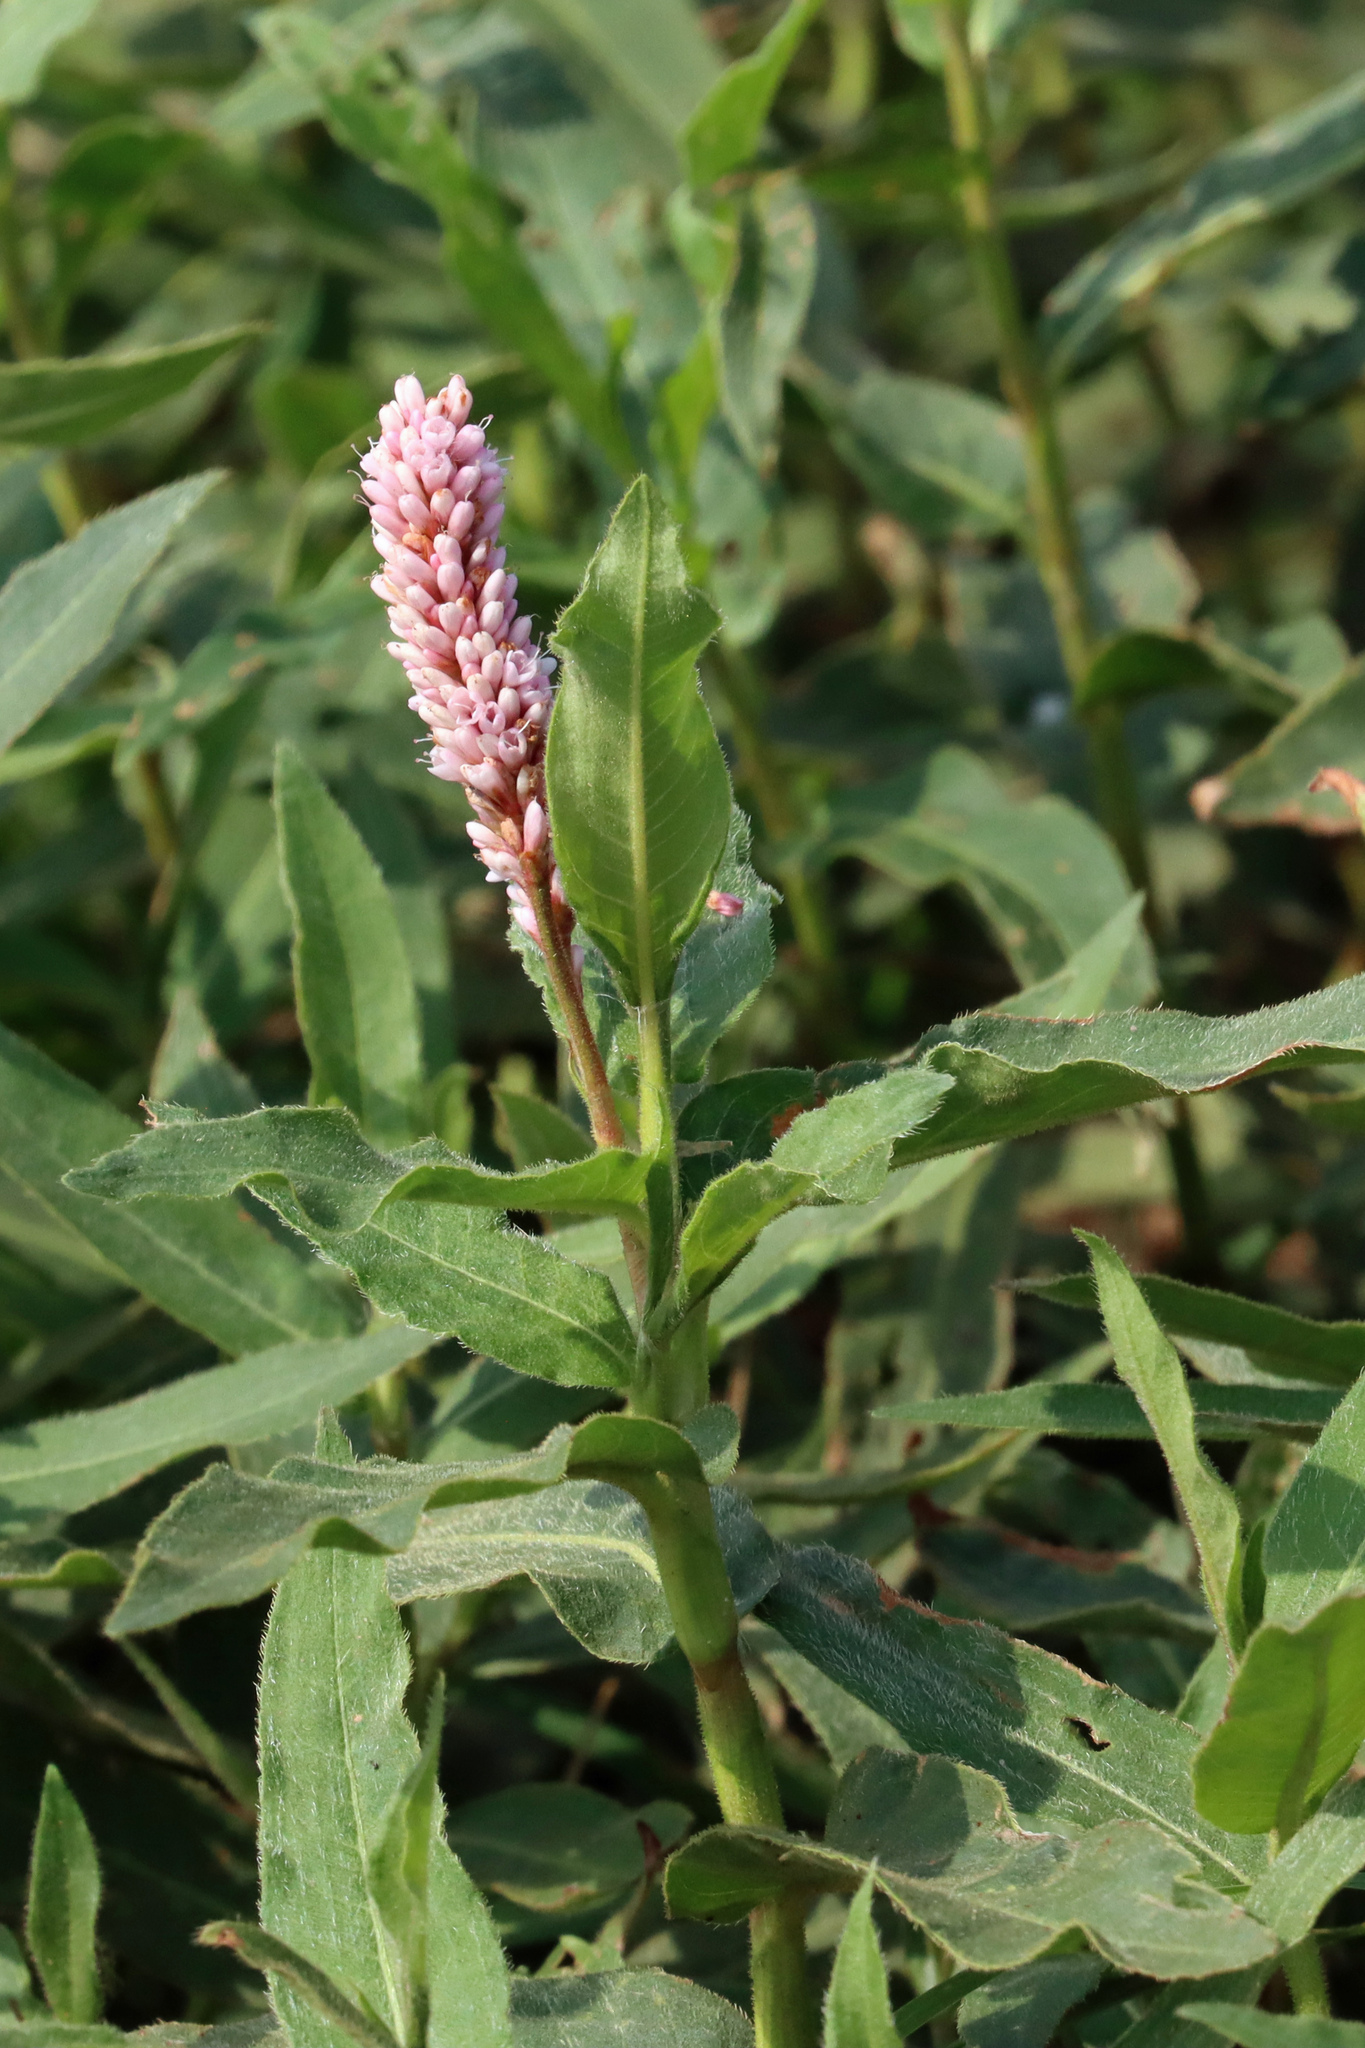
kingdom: Plantae
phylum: Tracheophyta
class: Magnoliopsida
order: Caryophyllales
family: Polygonaceae
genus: Persicaria
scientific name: Persicaria amphibia
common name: Amphibious bistort
